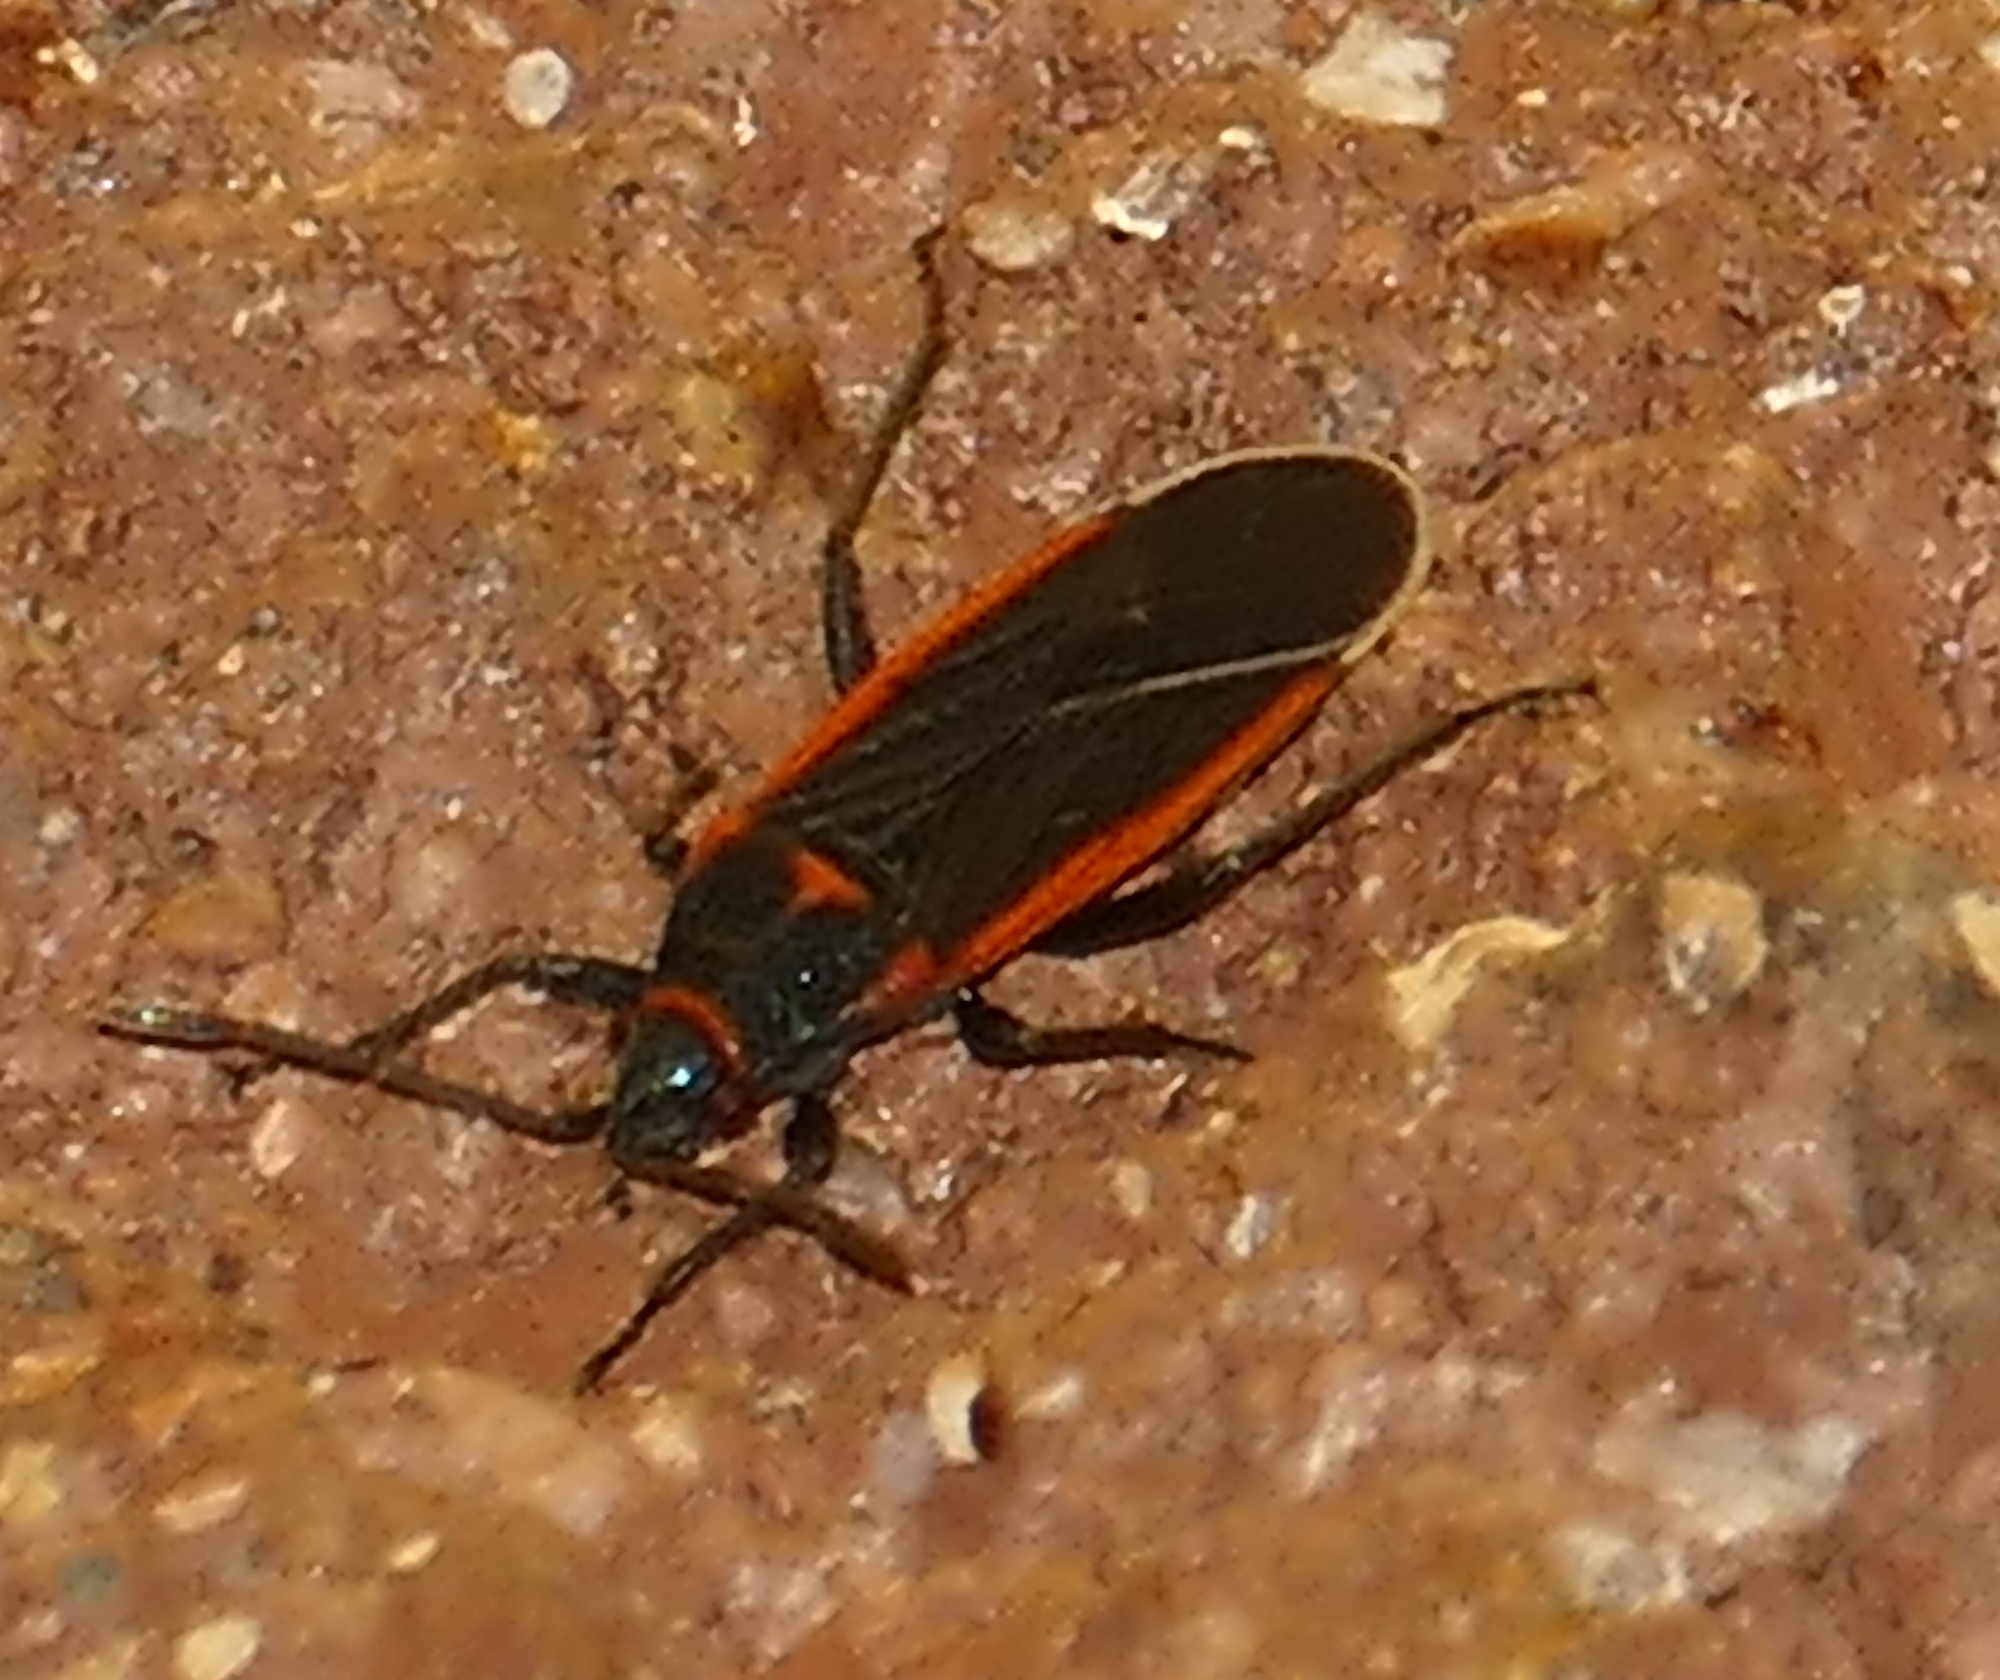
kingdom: Animalia
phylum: Arthropoda
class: Insecta
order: Hemiptera
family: Lygaeidae
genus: Melacoryphus
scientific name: Melacoryphus lateralis
